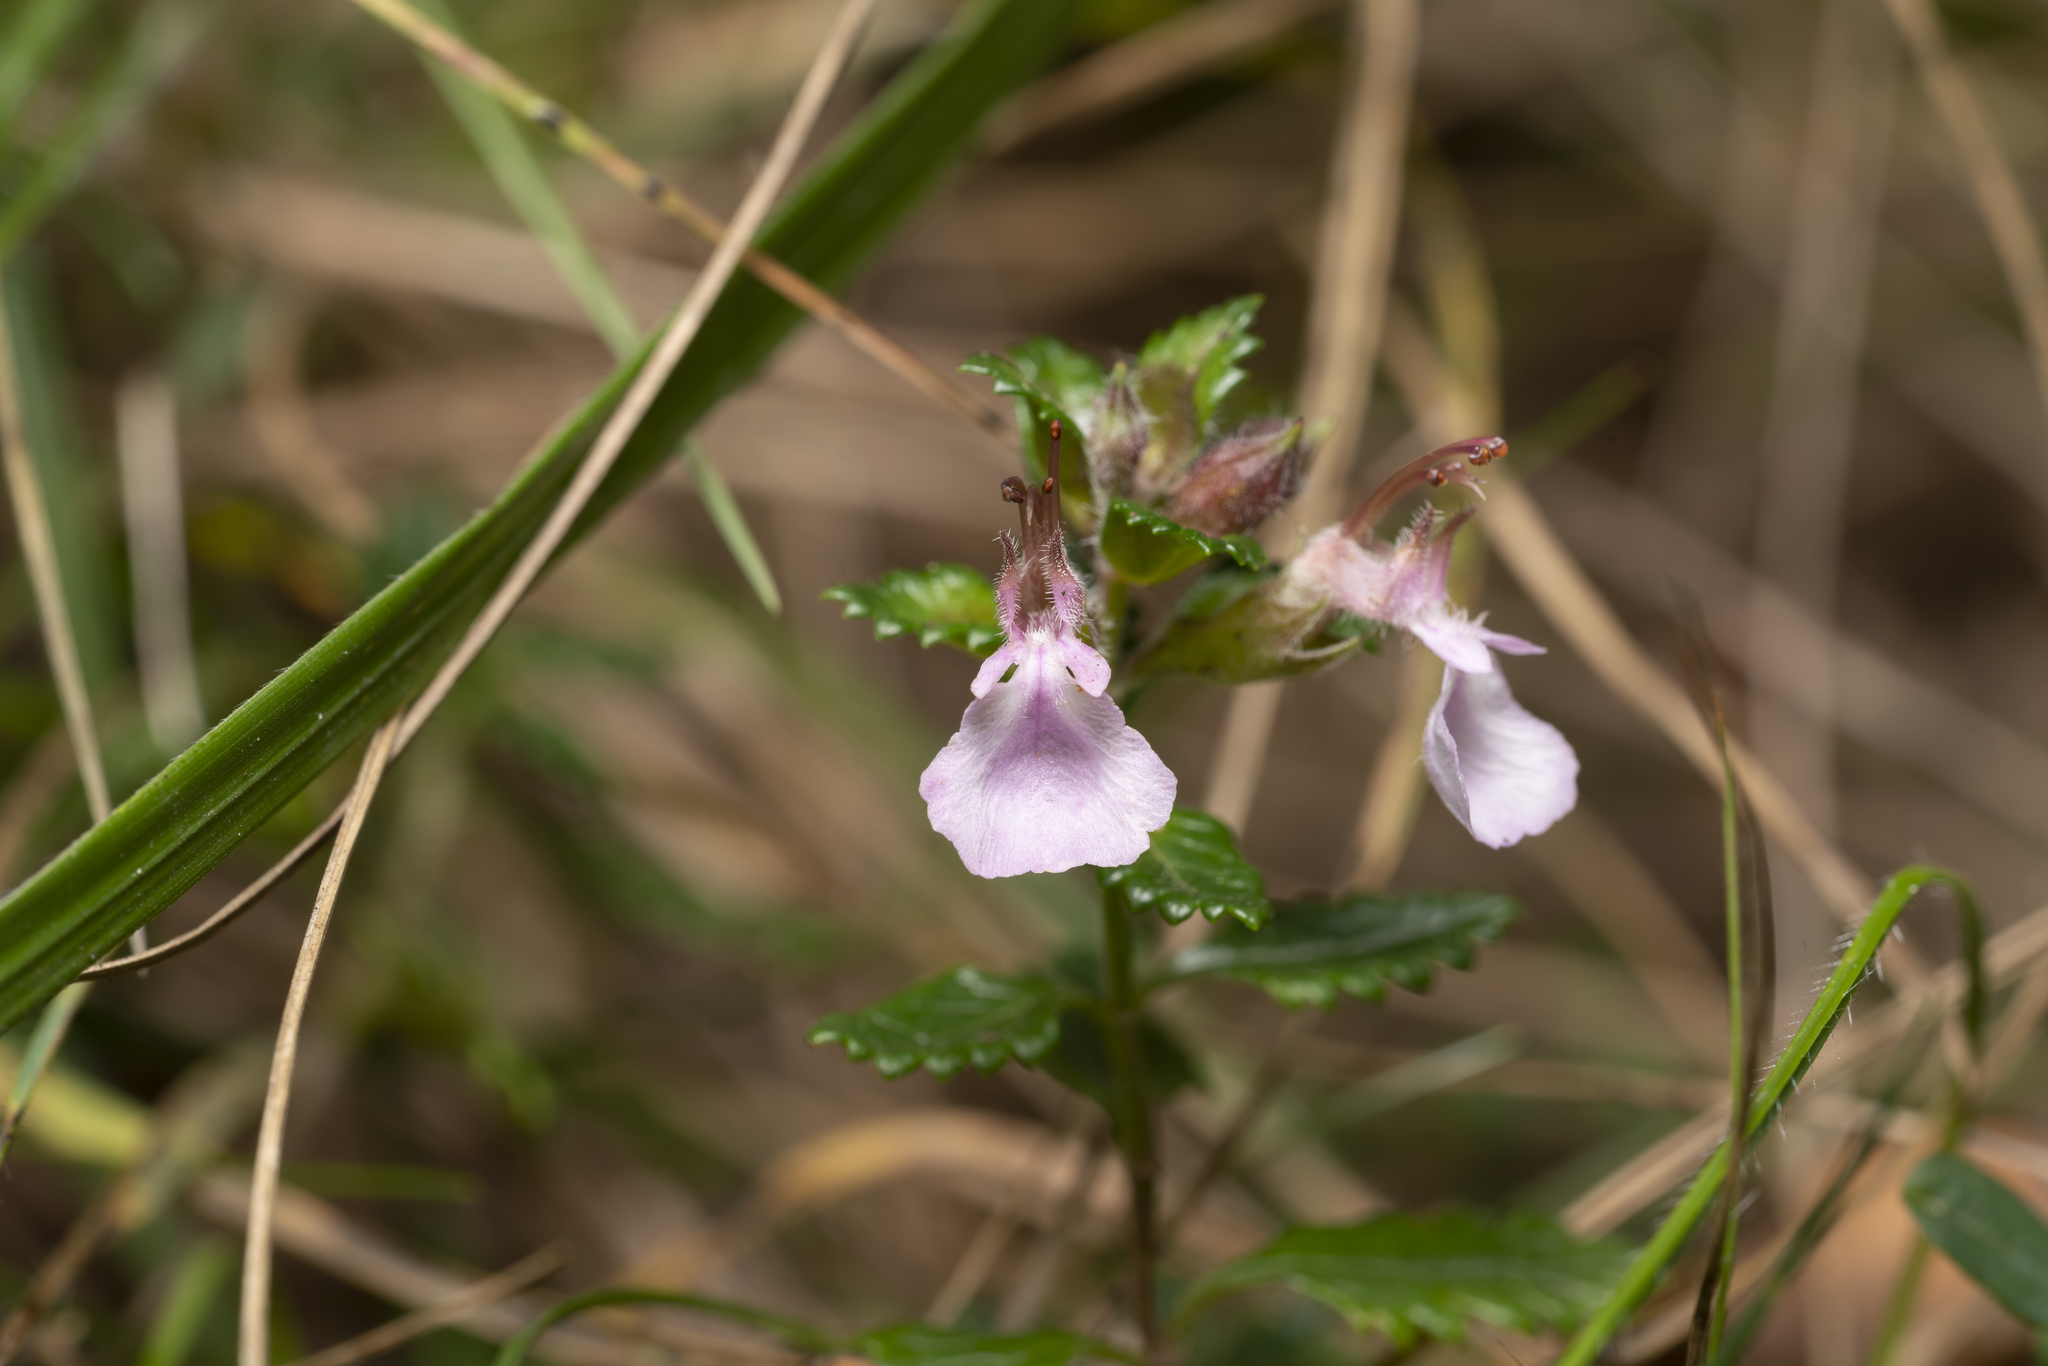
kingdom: Plantae
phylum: Tracheophyta
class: Magnoliopsida
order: Lamiales
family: Lamiaceae
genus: Teucrium
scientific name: Teucrium chamaedrys
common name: Wall germander
